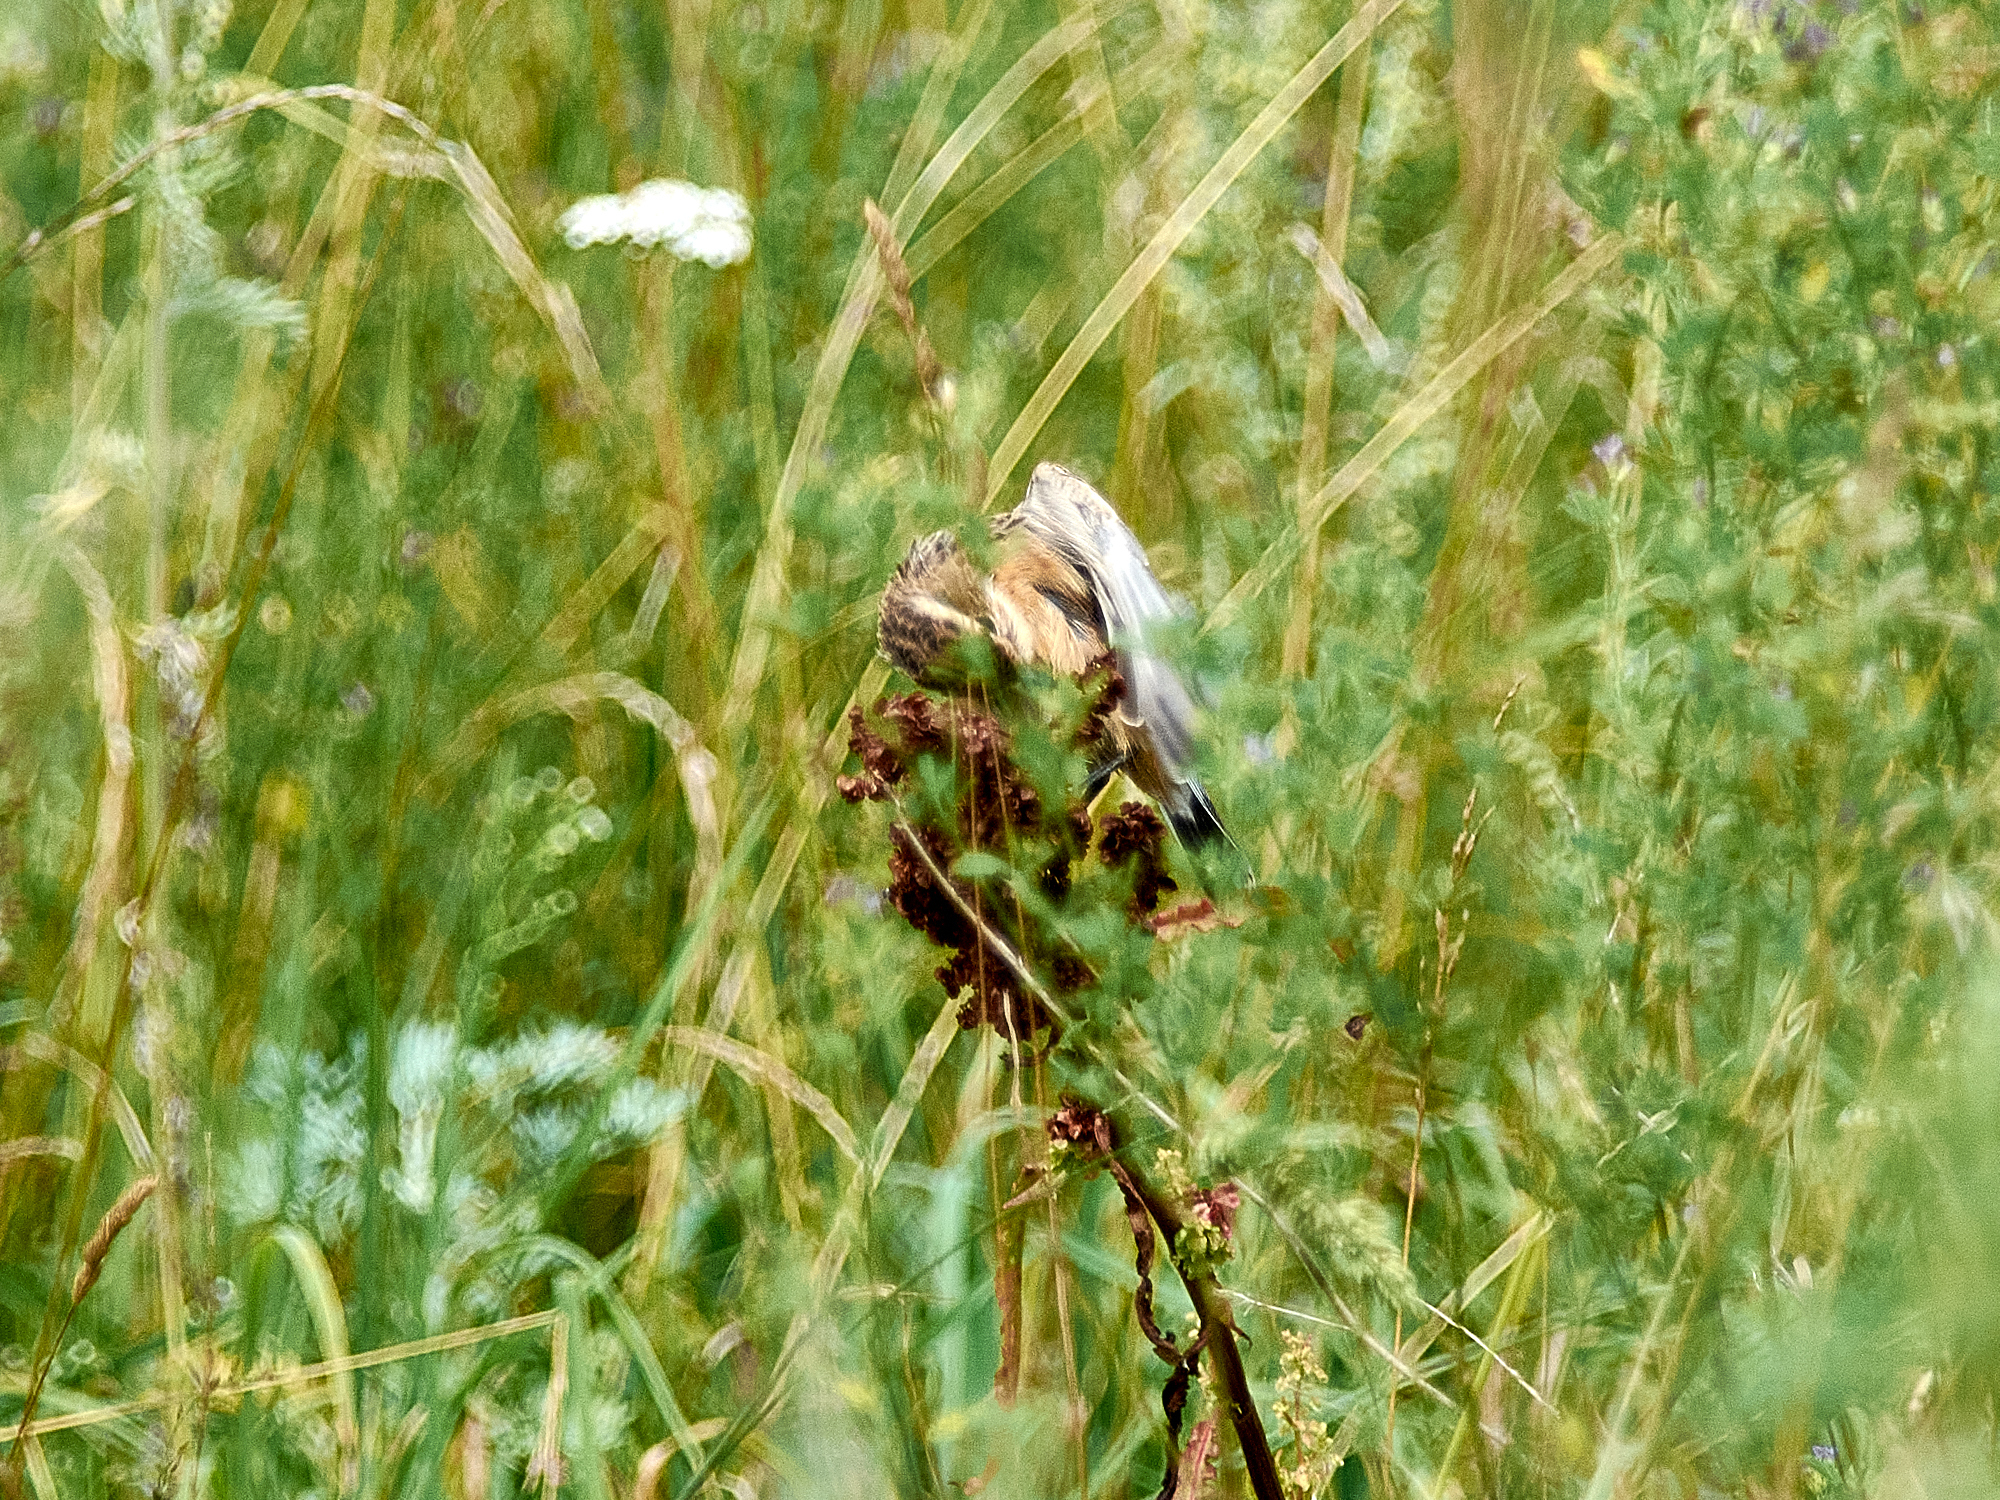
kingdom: Animalia
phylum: Chordata
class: Aves
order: Passeriformes
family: Muscicapidae
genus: Saxicola
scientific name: Saxicola rubetra
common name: Whinchat
